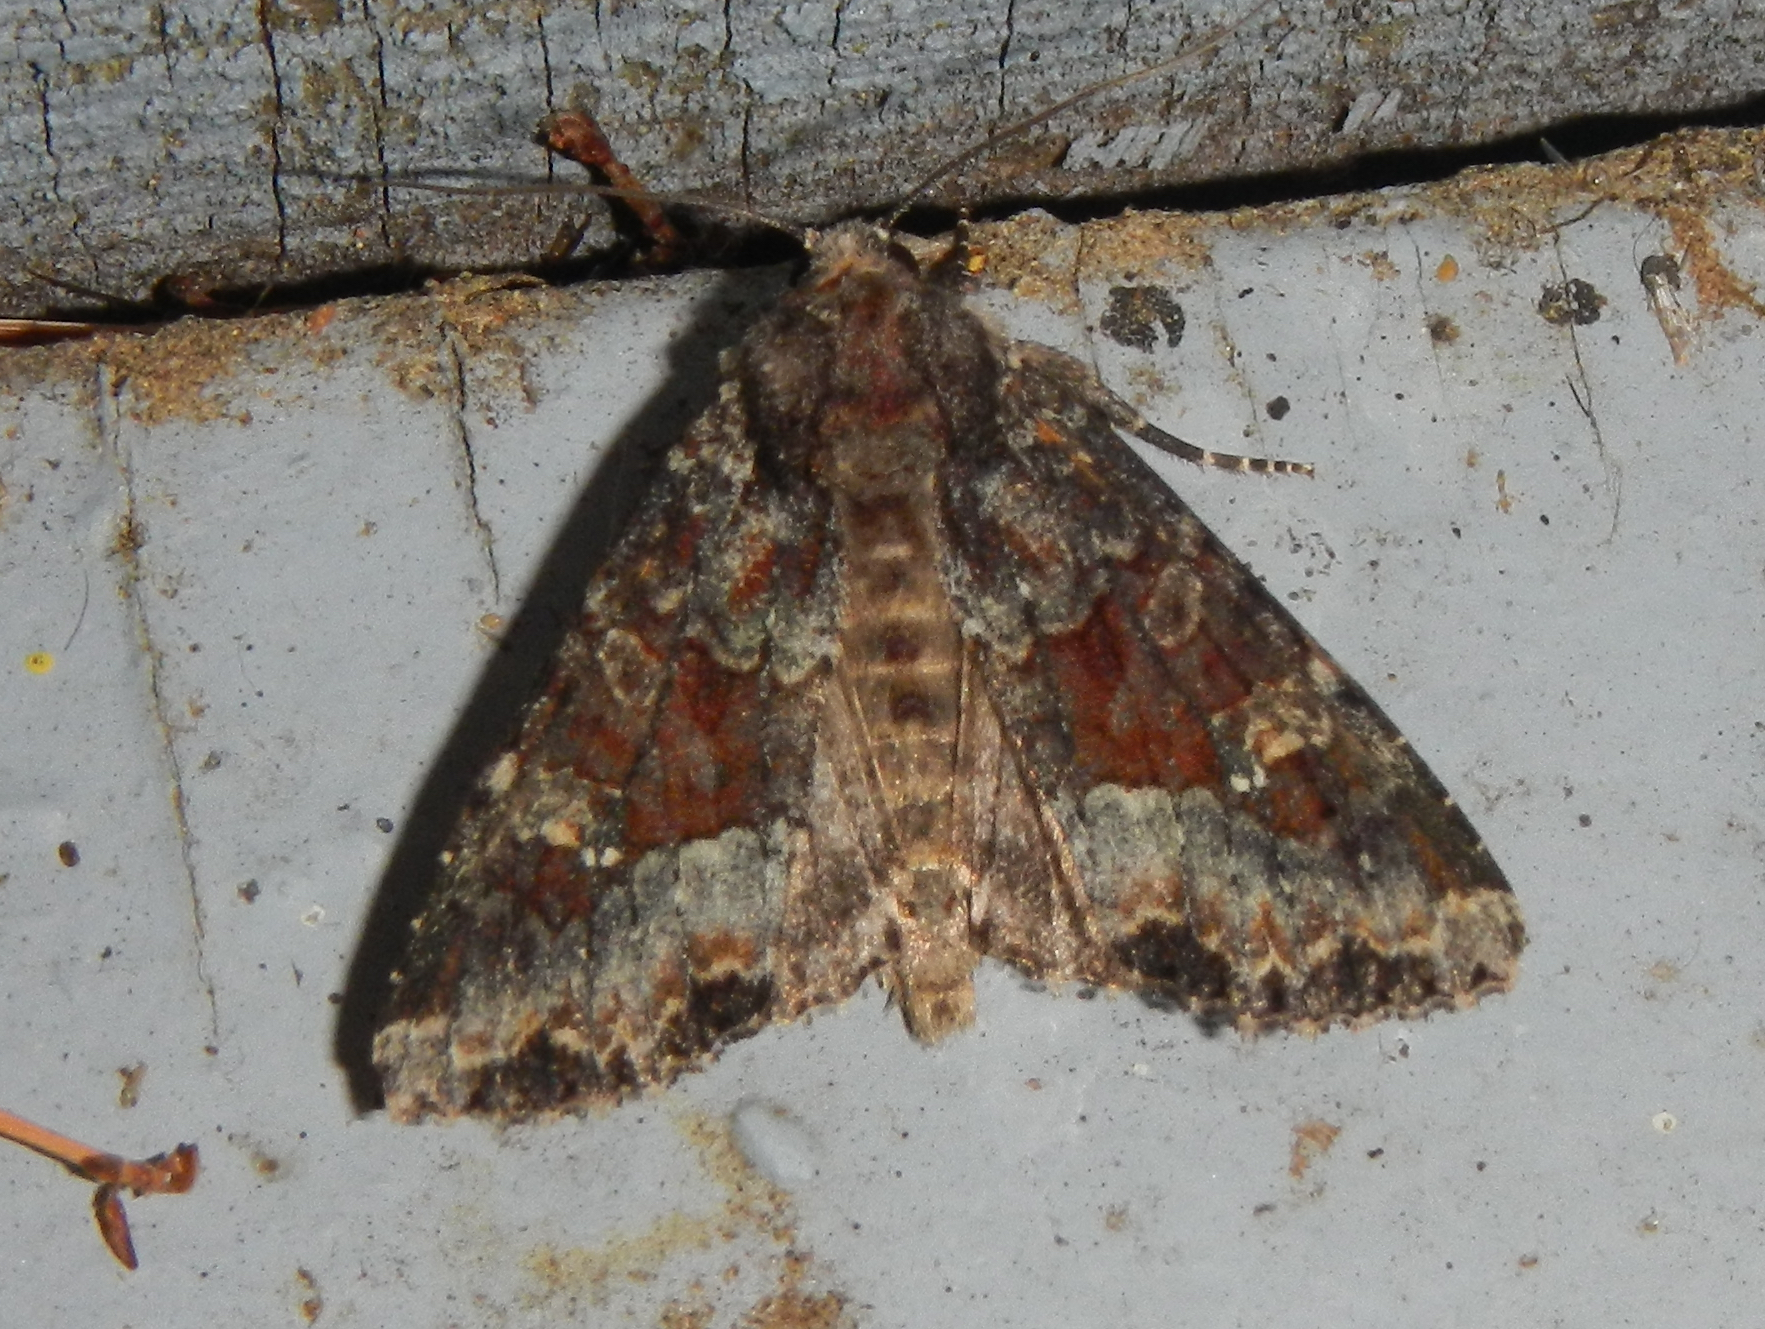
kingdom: Animalia
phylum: Arthropoda
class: Insecta
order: Lepidoptera
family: Noctuidae
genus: Apamea
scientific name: Apamea amputatrix
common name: Yellow-headed cutworm moth
